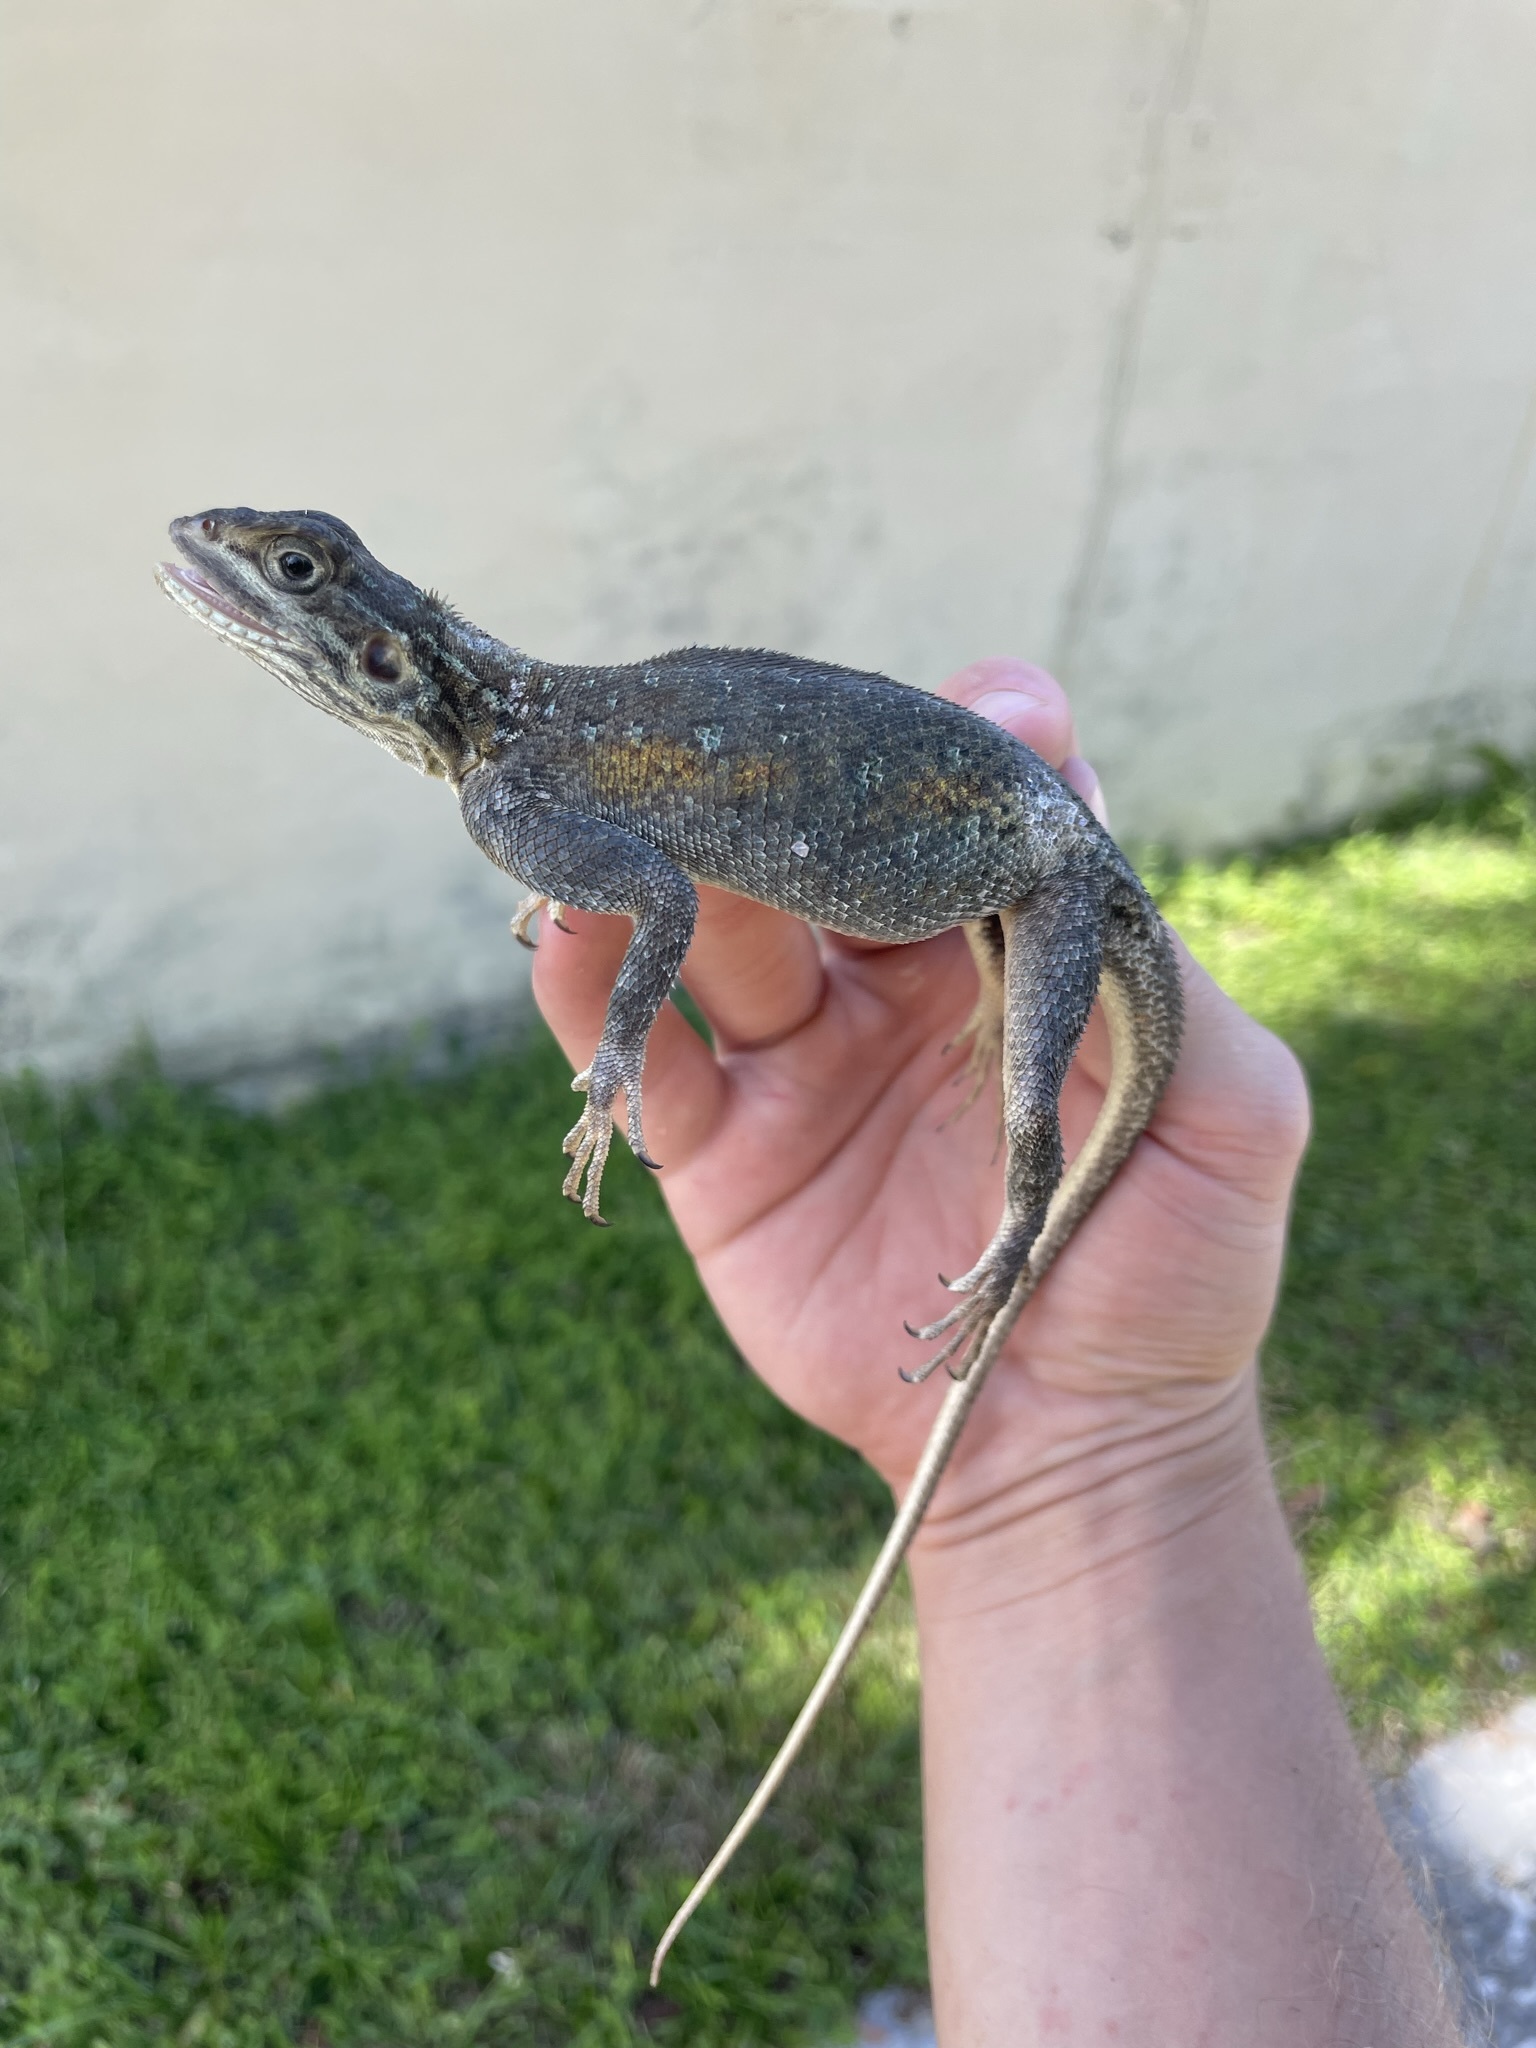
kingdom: Animalia
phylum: Chordata
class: Squamata
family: Agamidae
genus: Agama
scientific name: Agama picticauda
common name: Red-headed agama
